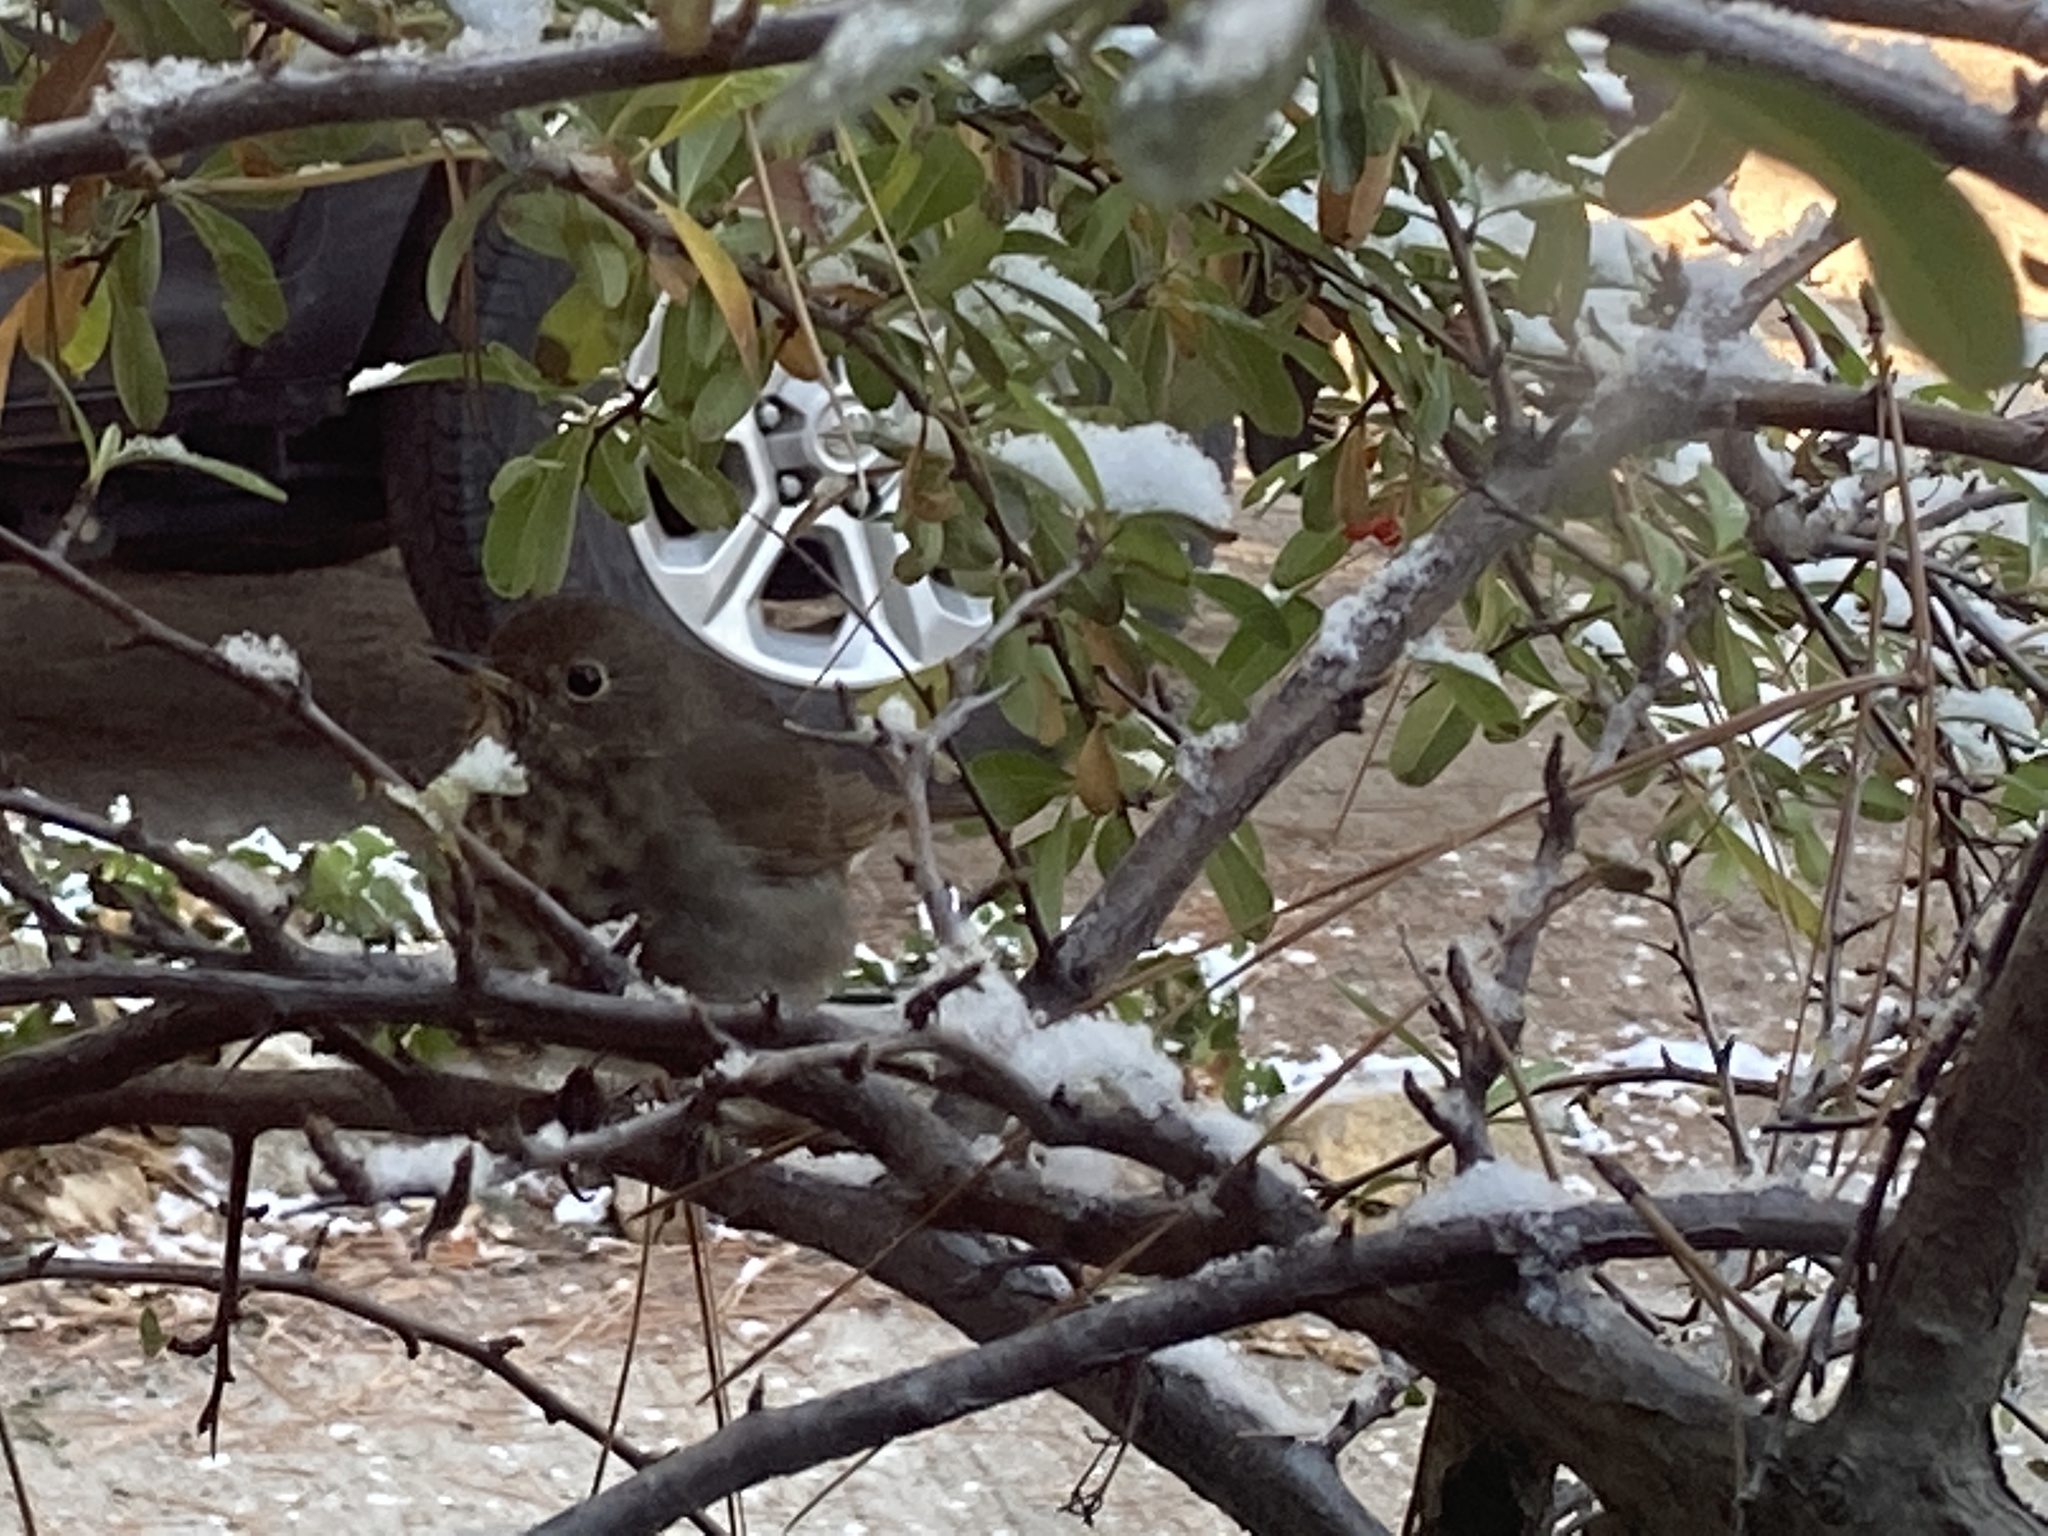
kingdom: Animalia
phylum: Chordata
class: Aves
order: Passeriformes
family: Turdidae
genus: Catharus
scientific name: Catharus guttatus
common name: Hermit thrush
